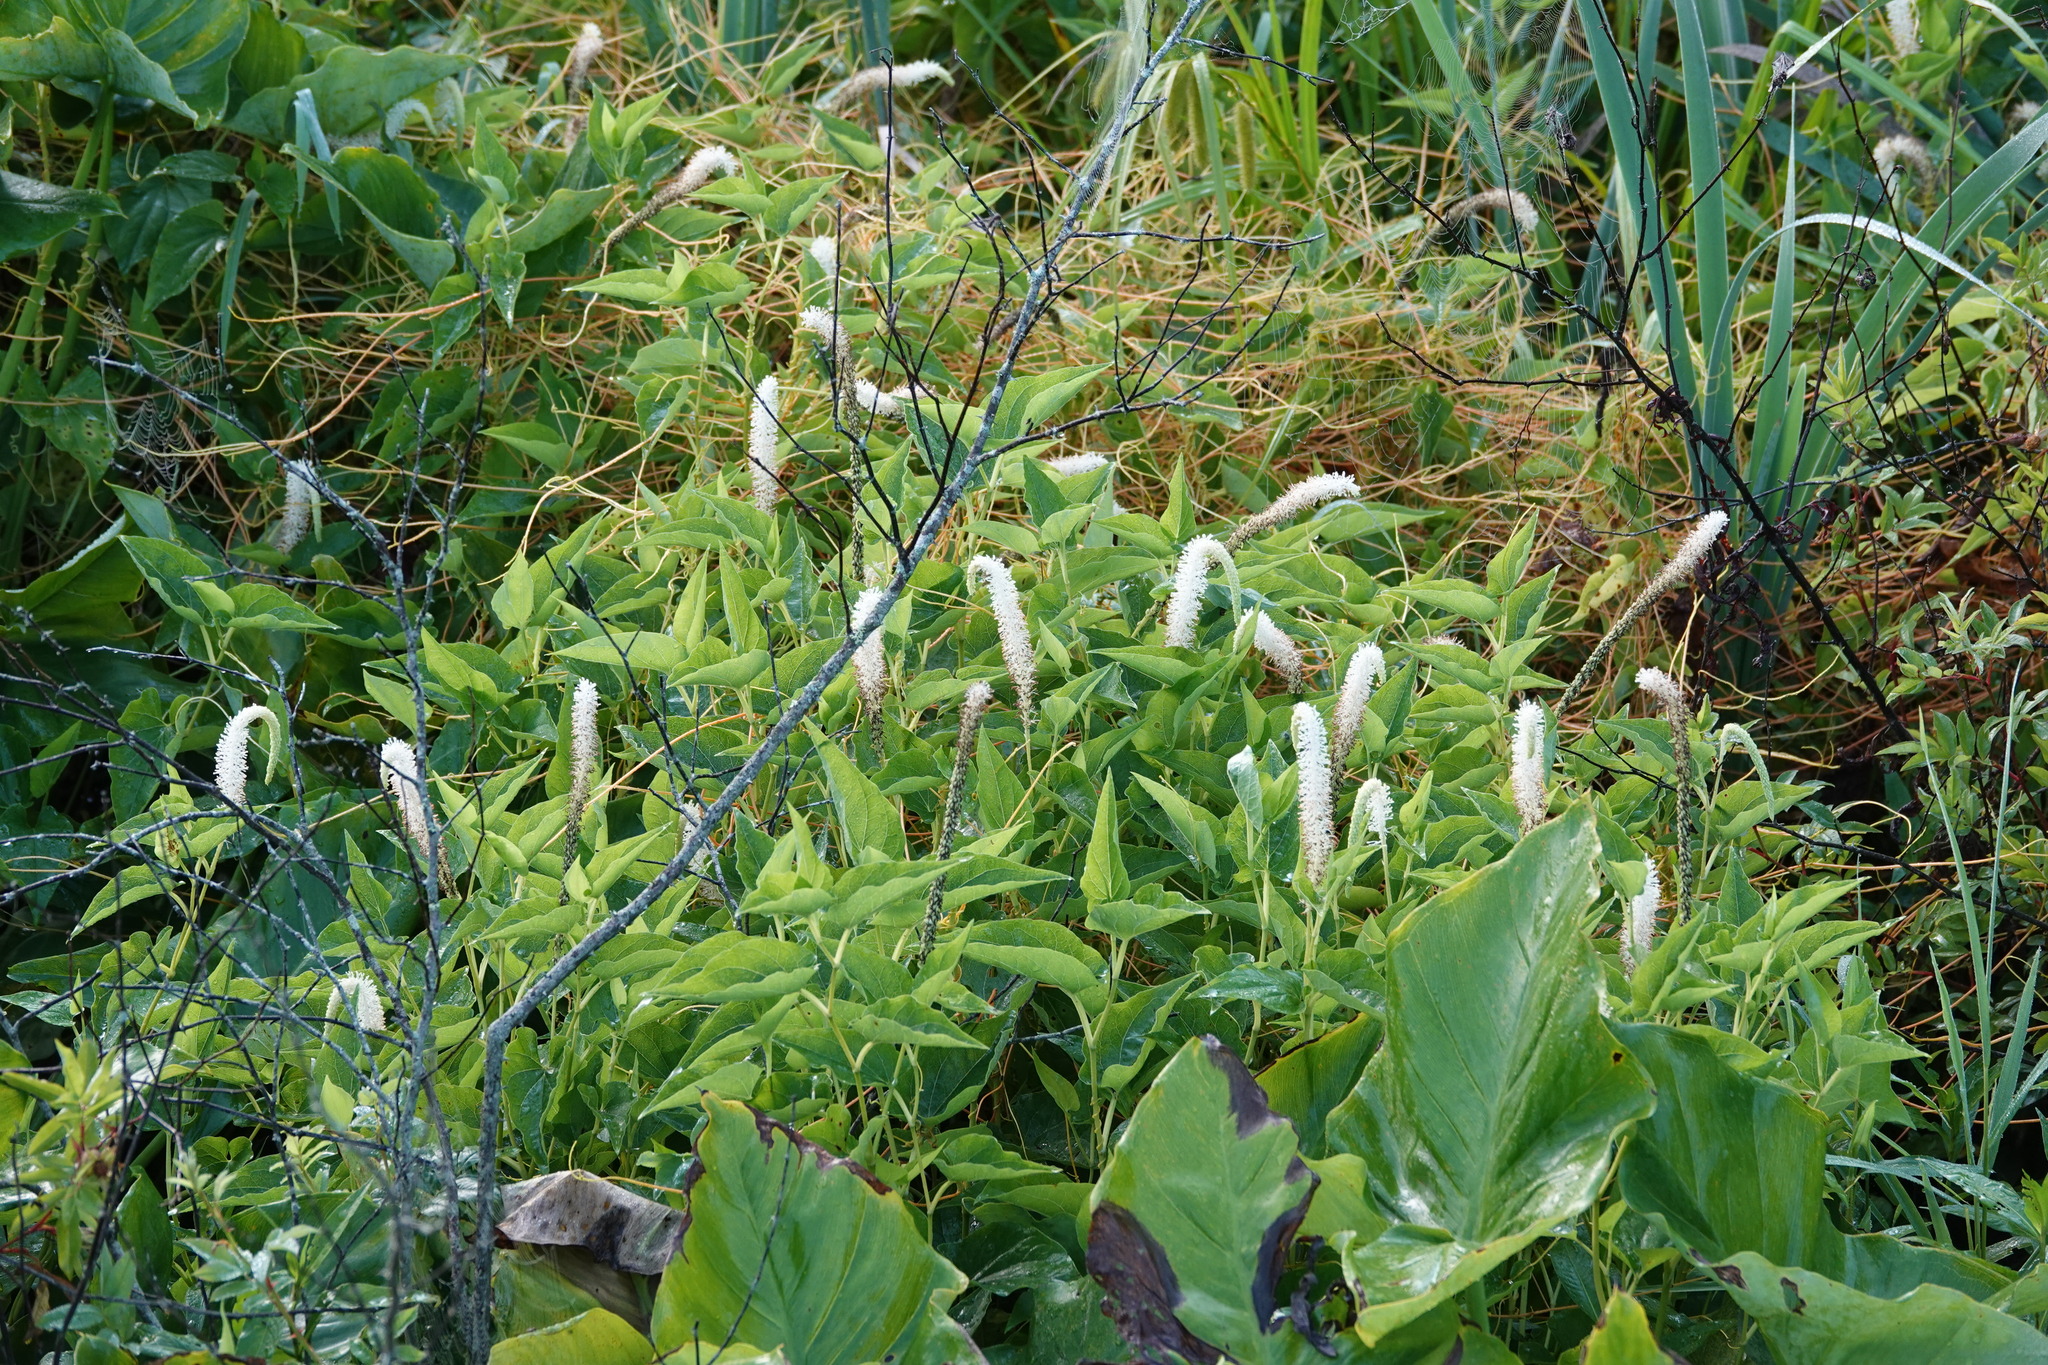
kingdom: Plantae
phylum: Tracheophyta
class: Magnoliopsida
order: Piperales
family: Saururaceae
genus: Saururus
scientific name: Saururus cernuus
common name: Lizard's-tail
